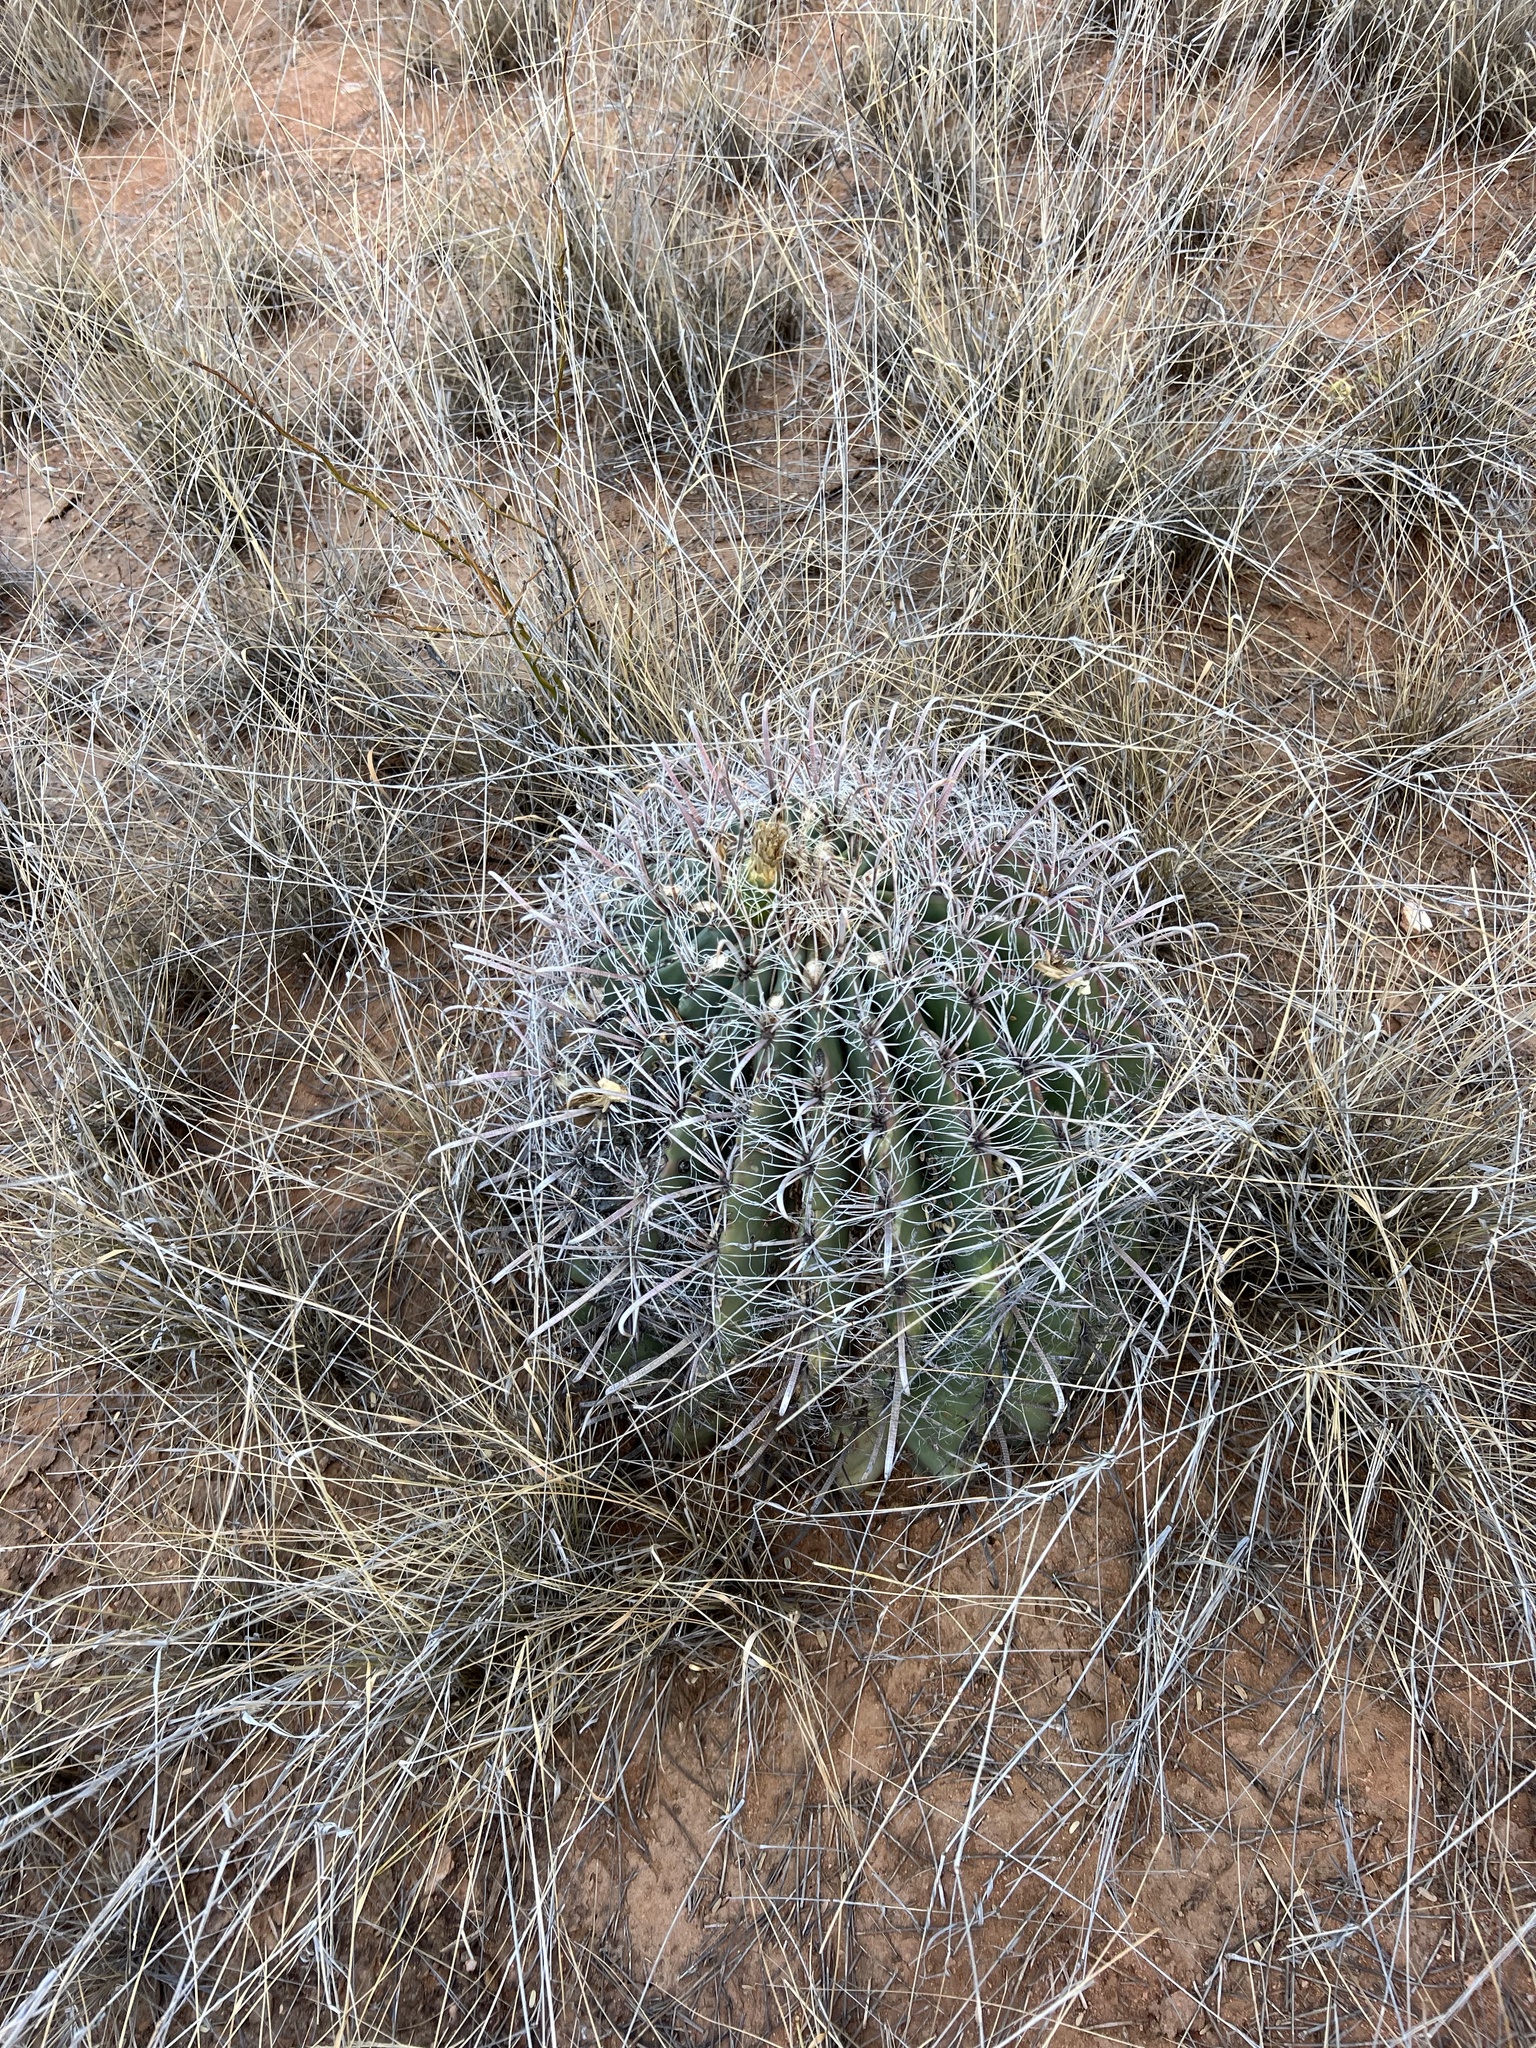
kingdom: Plantae
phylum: Tracheophyta
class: Magnoliopsida
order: Caryophyllales
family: Cactaceae
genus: Ferocactus
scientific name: Ferocactus wislizeni
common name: Candy barrel cactus
